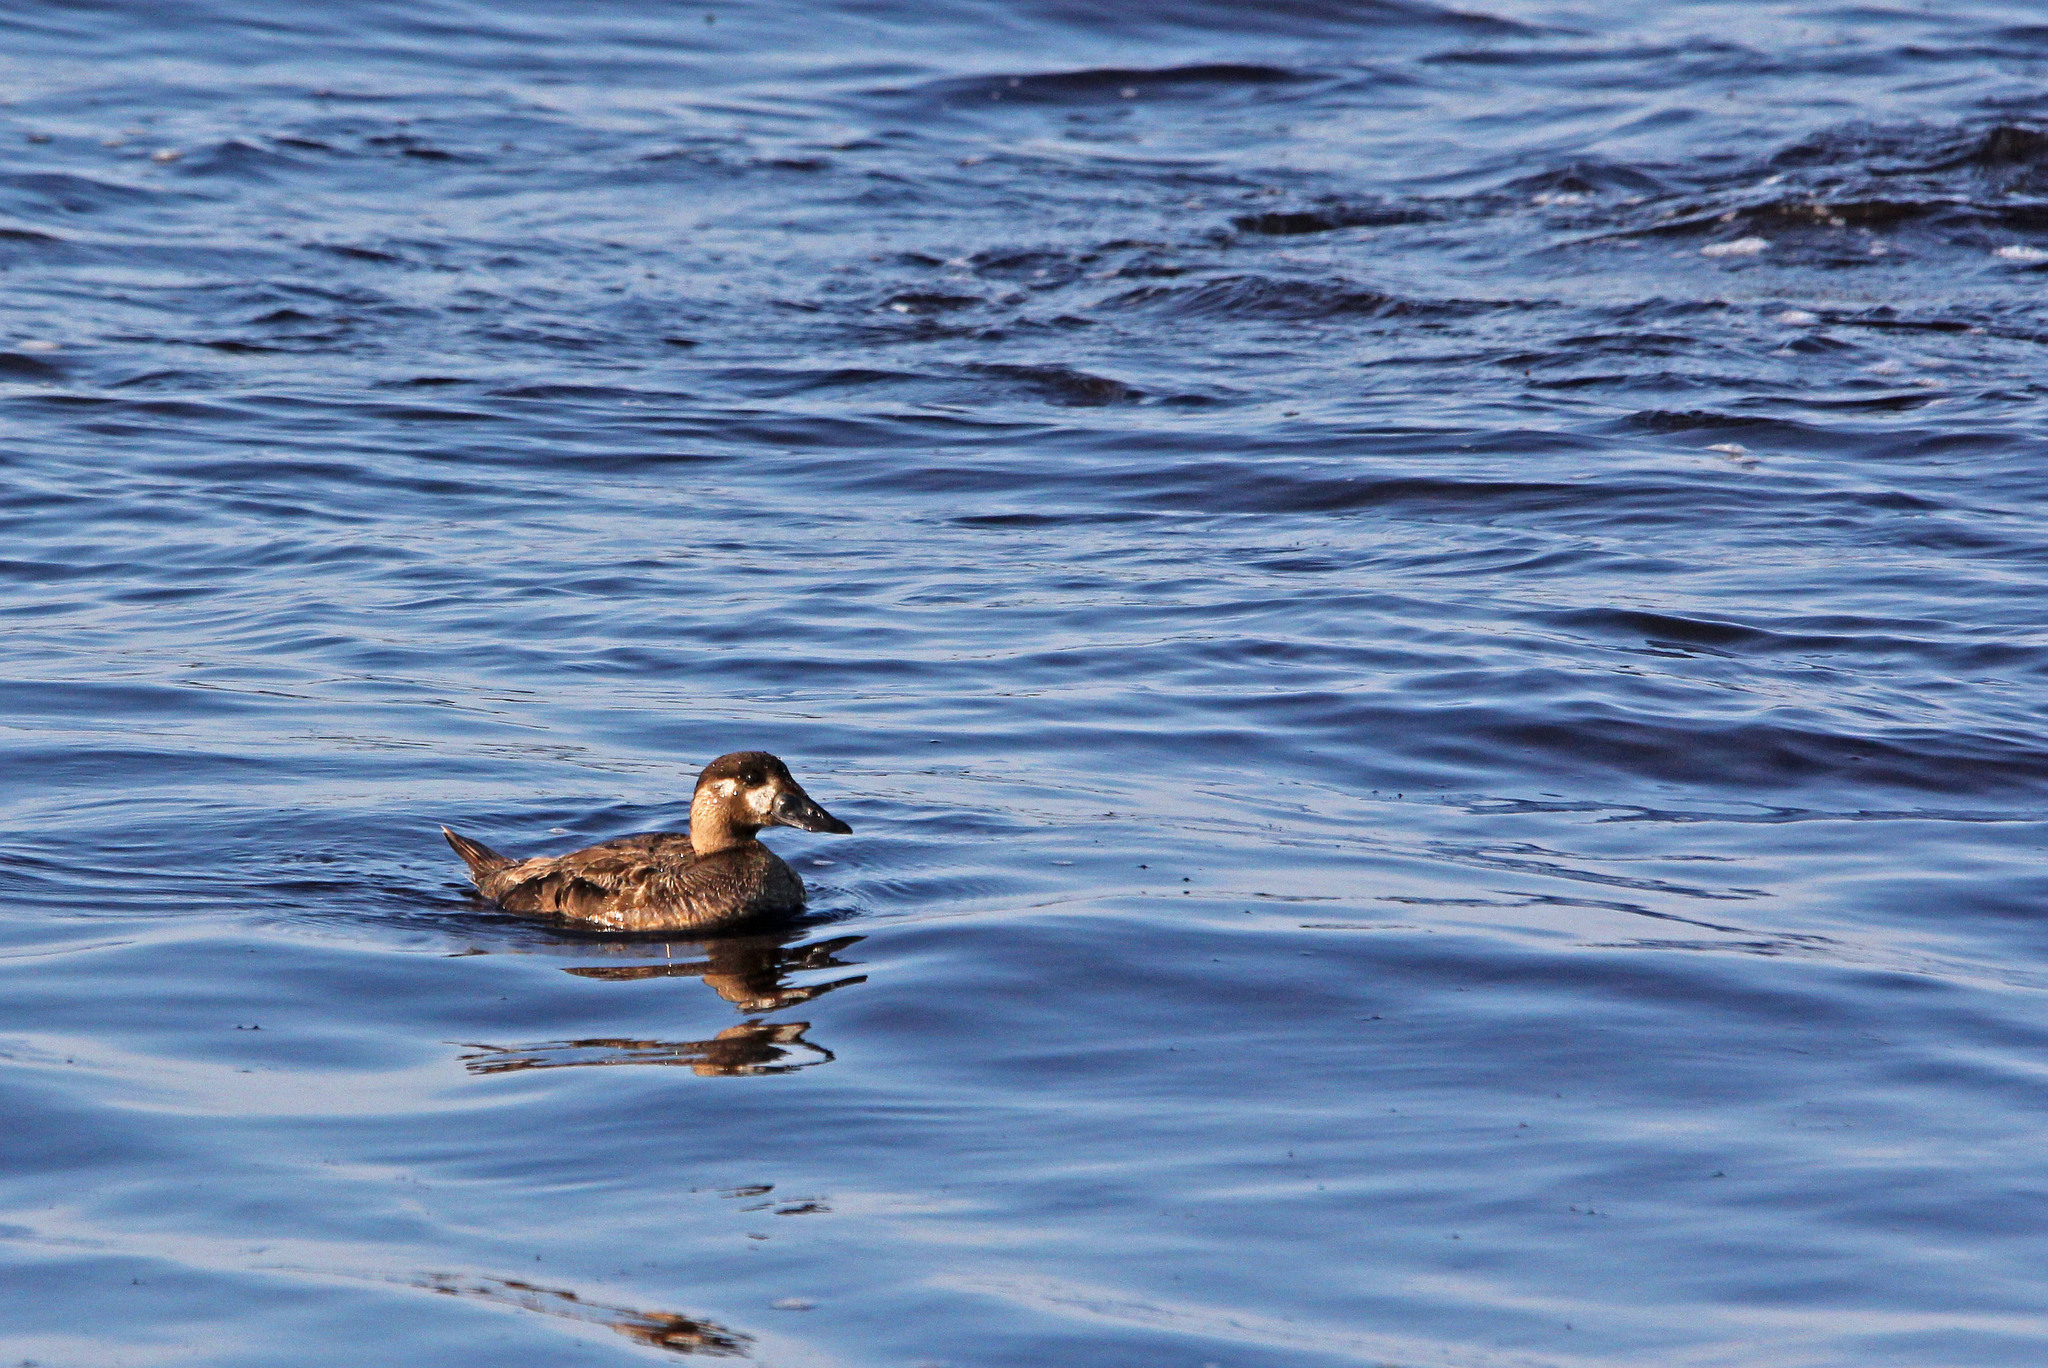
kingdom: Animalia
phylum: Chordata
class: Aves
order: Anseriformes
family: Anatidae
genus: Melanitta
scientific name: Melanitta perspicillata
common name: Surf scoter
